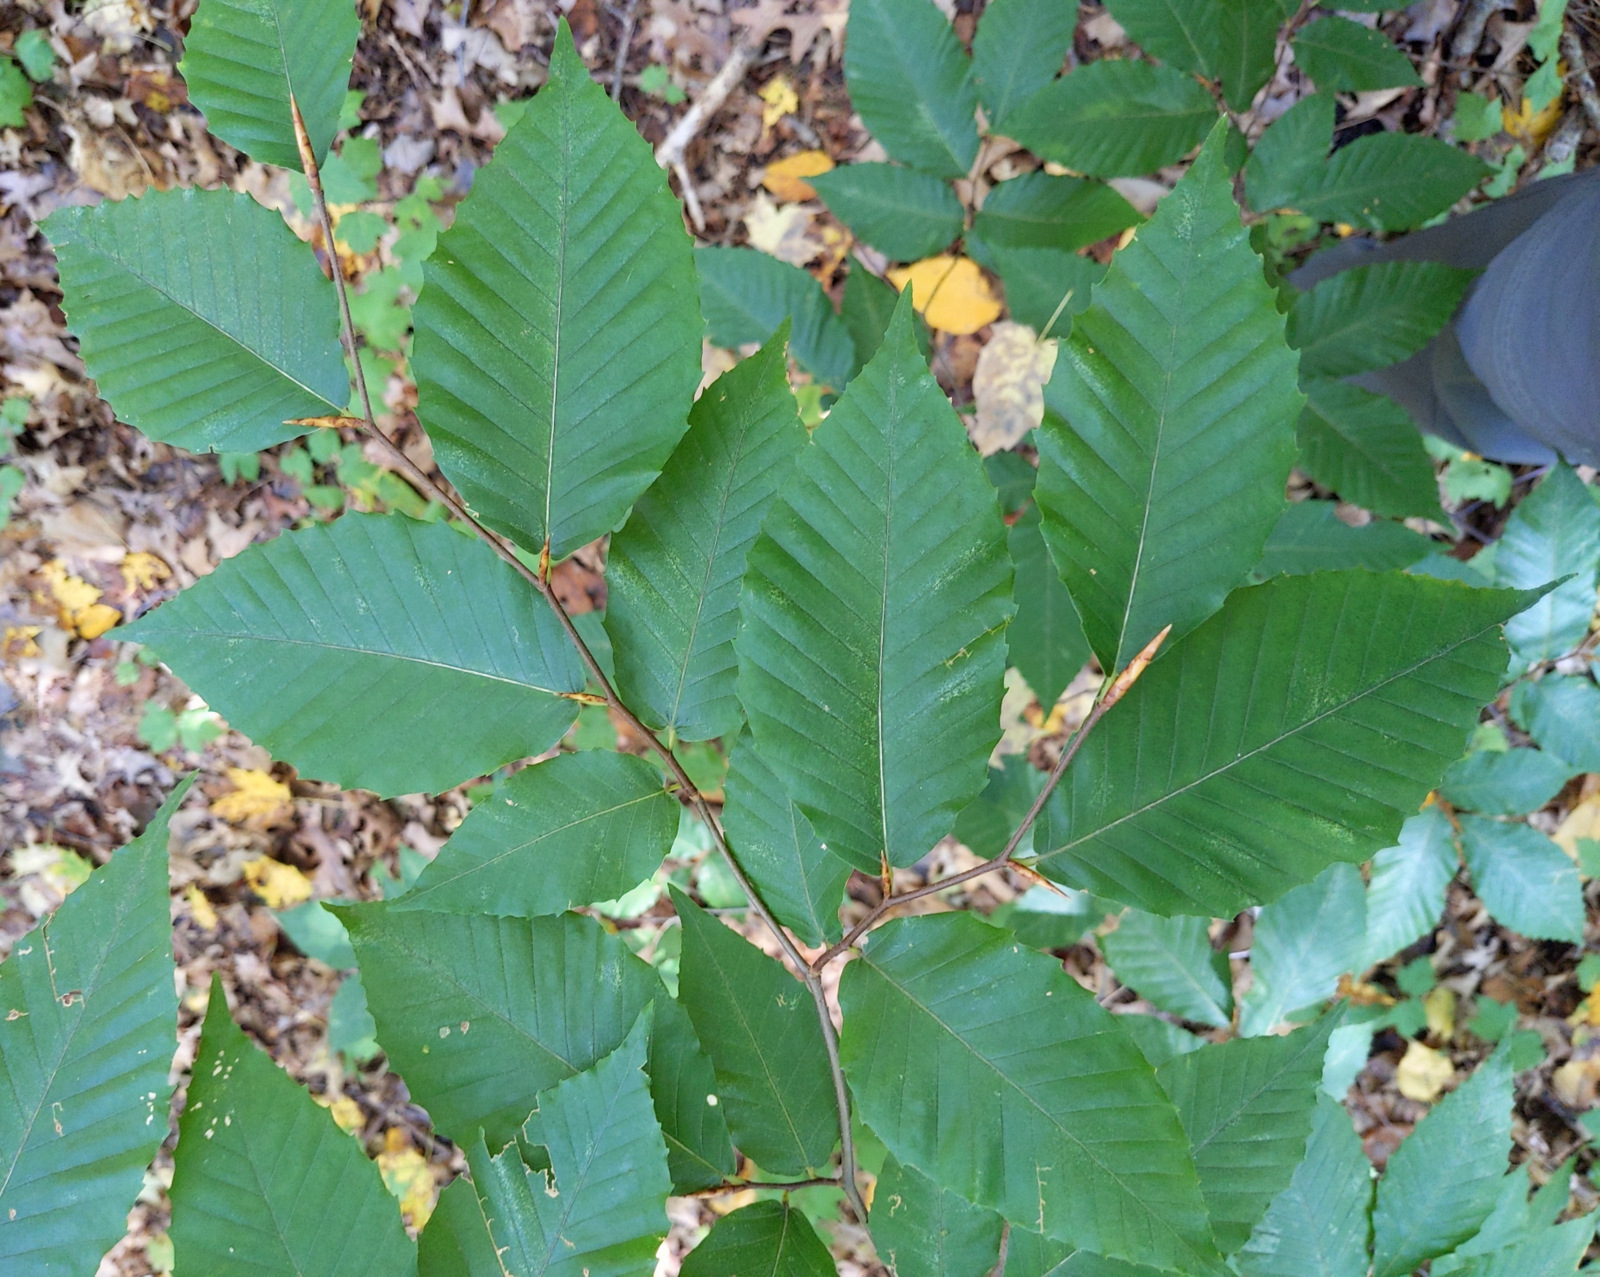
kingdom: Plantae
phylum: Tracheophyta
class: Magnoliopsida
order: Fagales
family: Fagaceae
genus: Fagus
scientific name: Fagus grandifolia
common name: American beech
